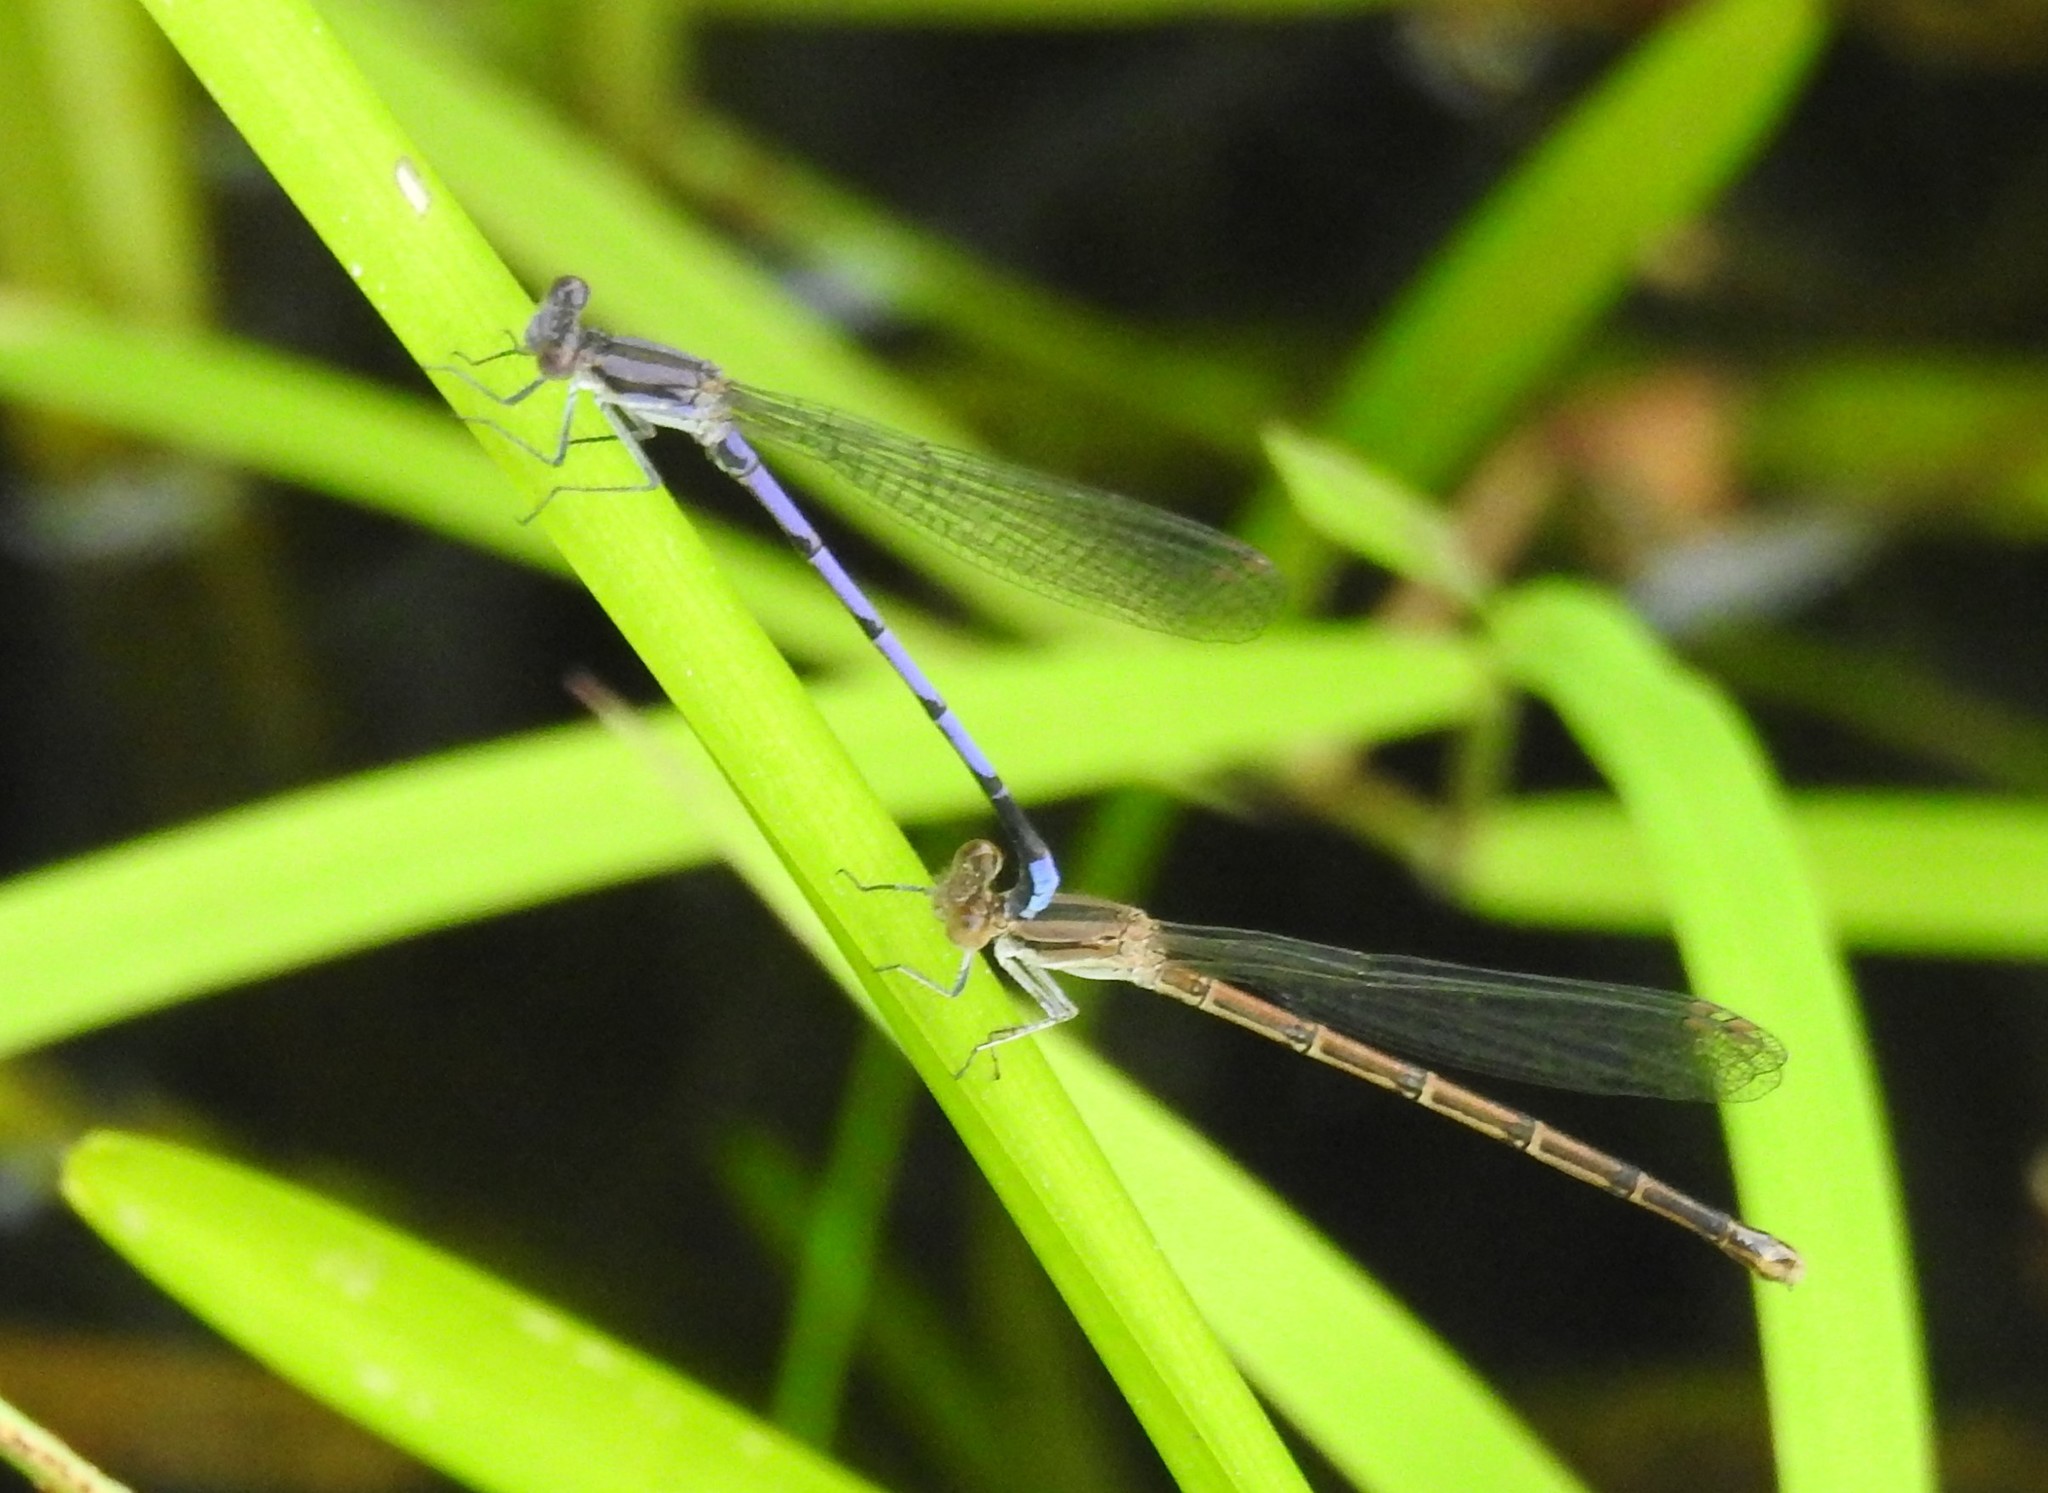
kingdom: Animalia
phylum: Arthropoda
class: Insecta
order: Odonata
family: Coenagrionidae
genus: Argia
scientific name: Argia fumipennis
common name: Variable dancer
